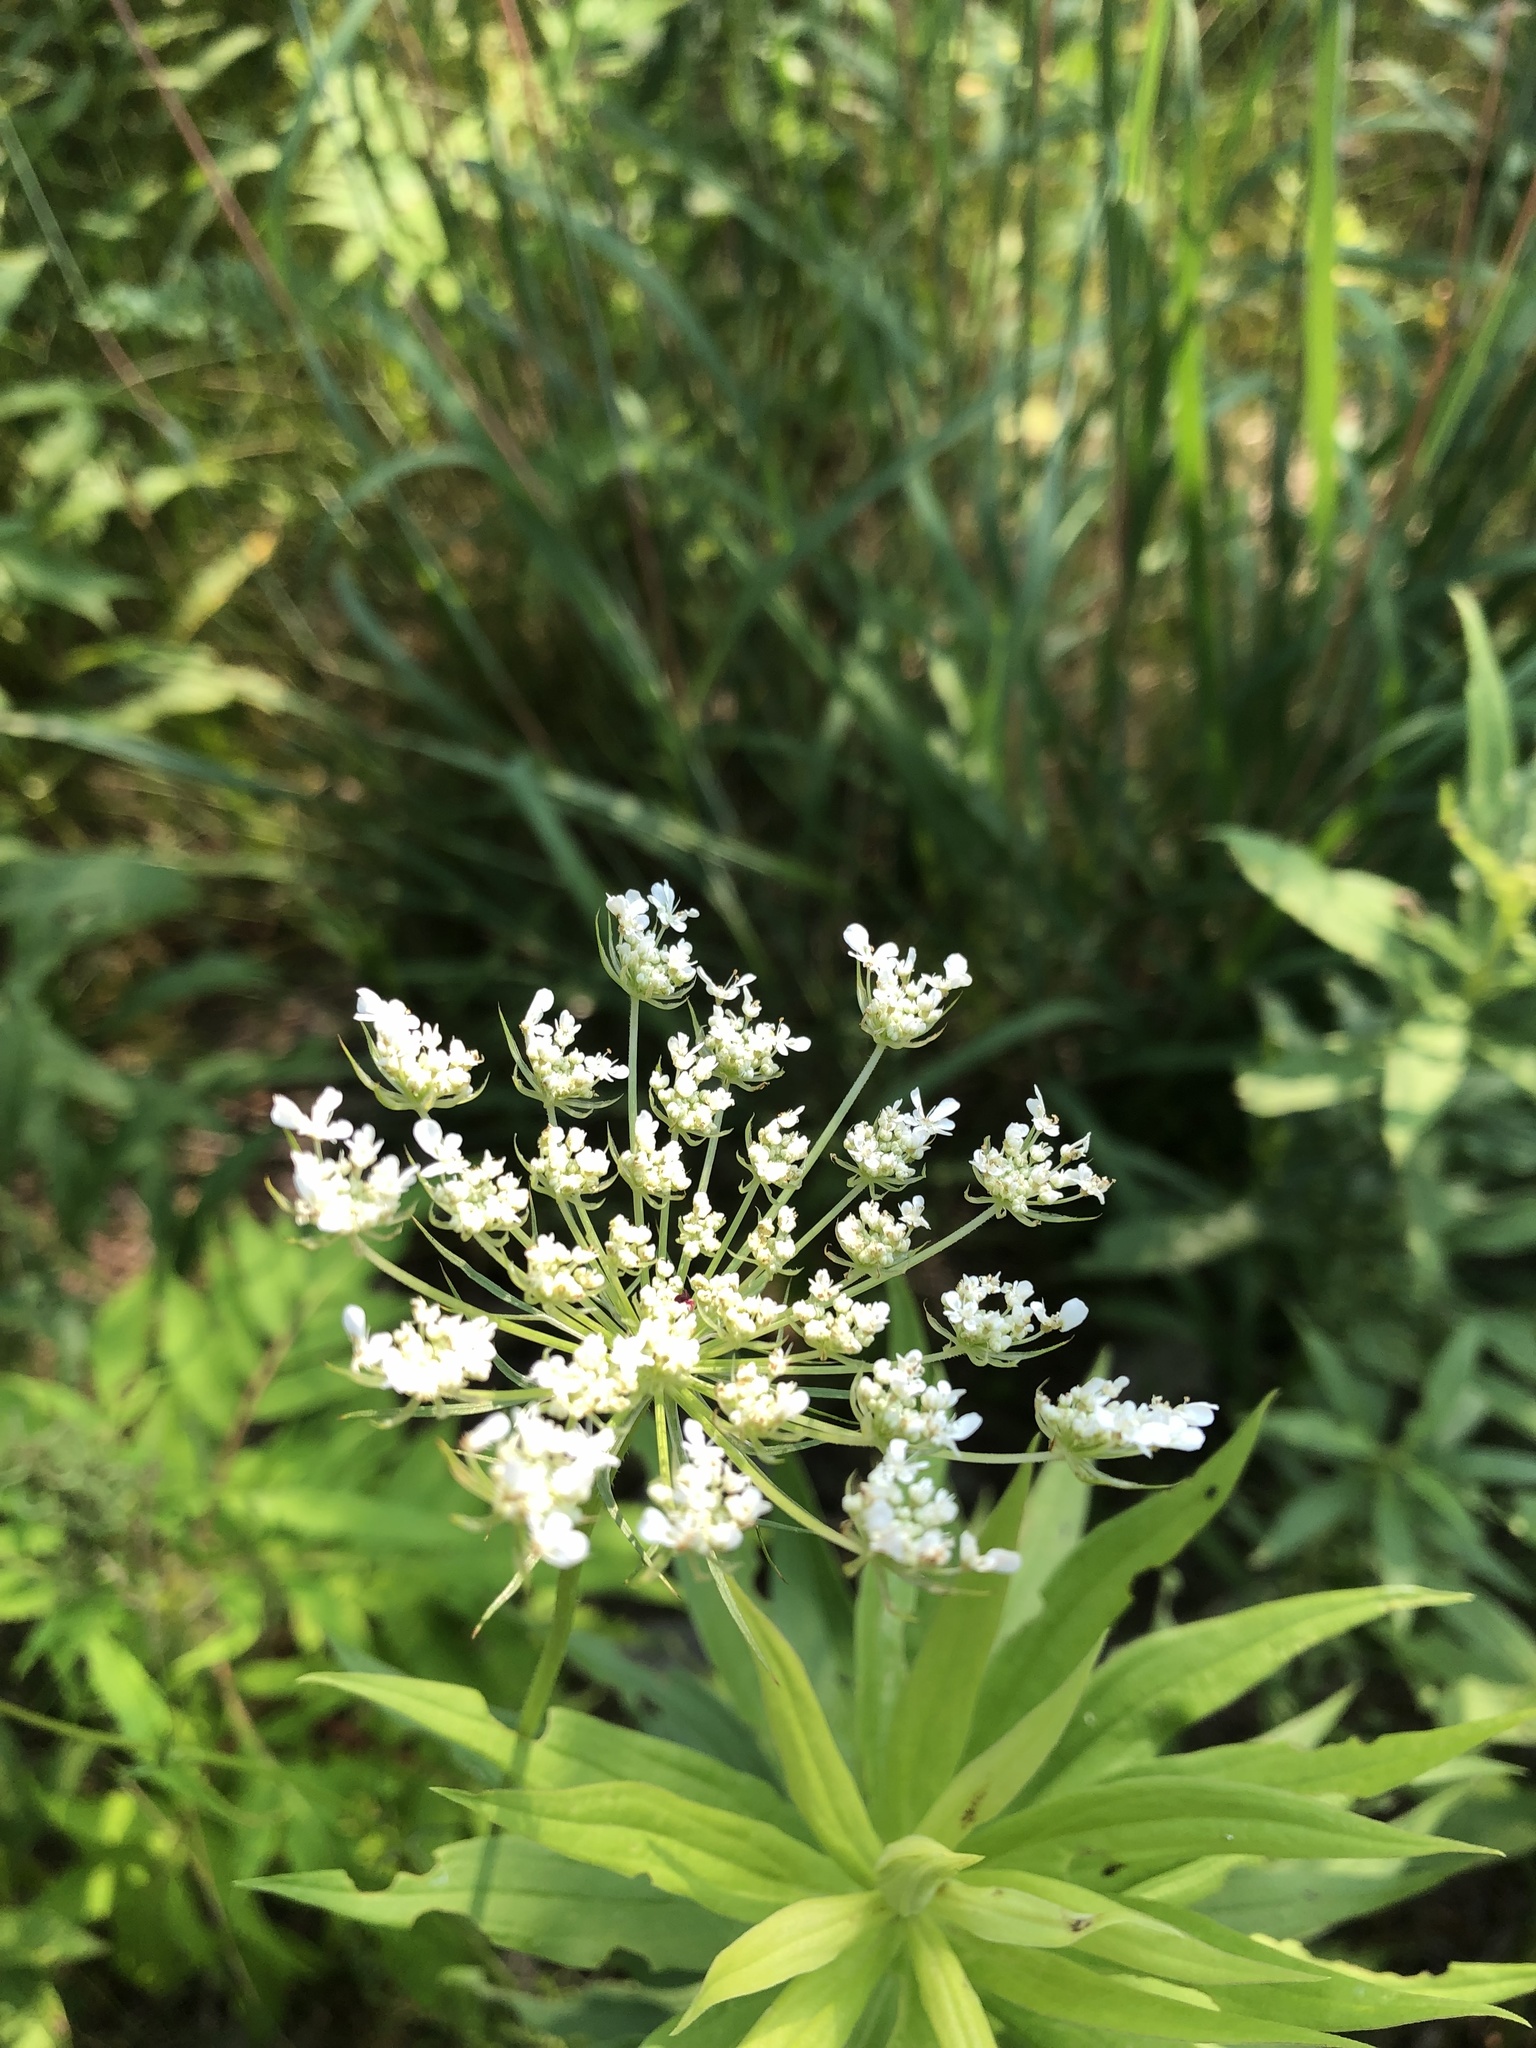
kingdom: Plantae
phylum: Tracheophyta
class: Magnoliopsida
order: Apiales
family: Apiaceae
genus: Daucus
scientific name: Daucus carota
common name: Wild carrot
